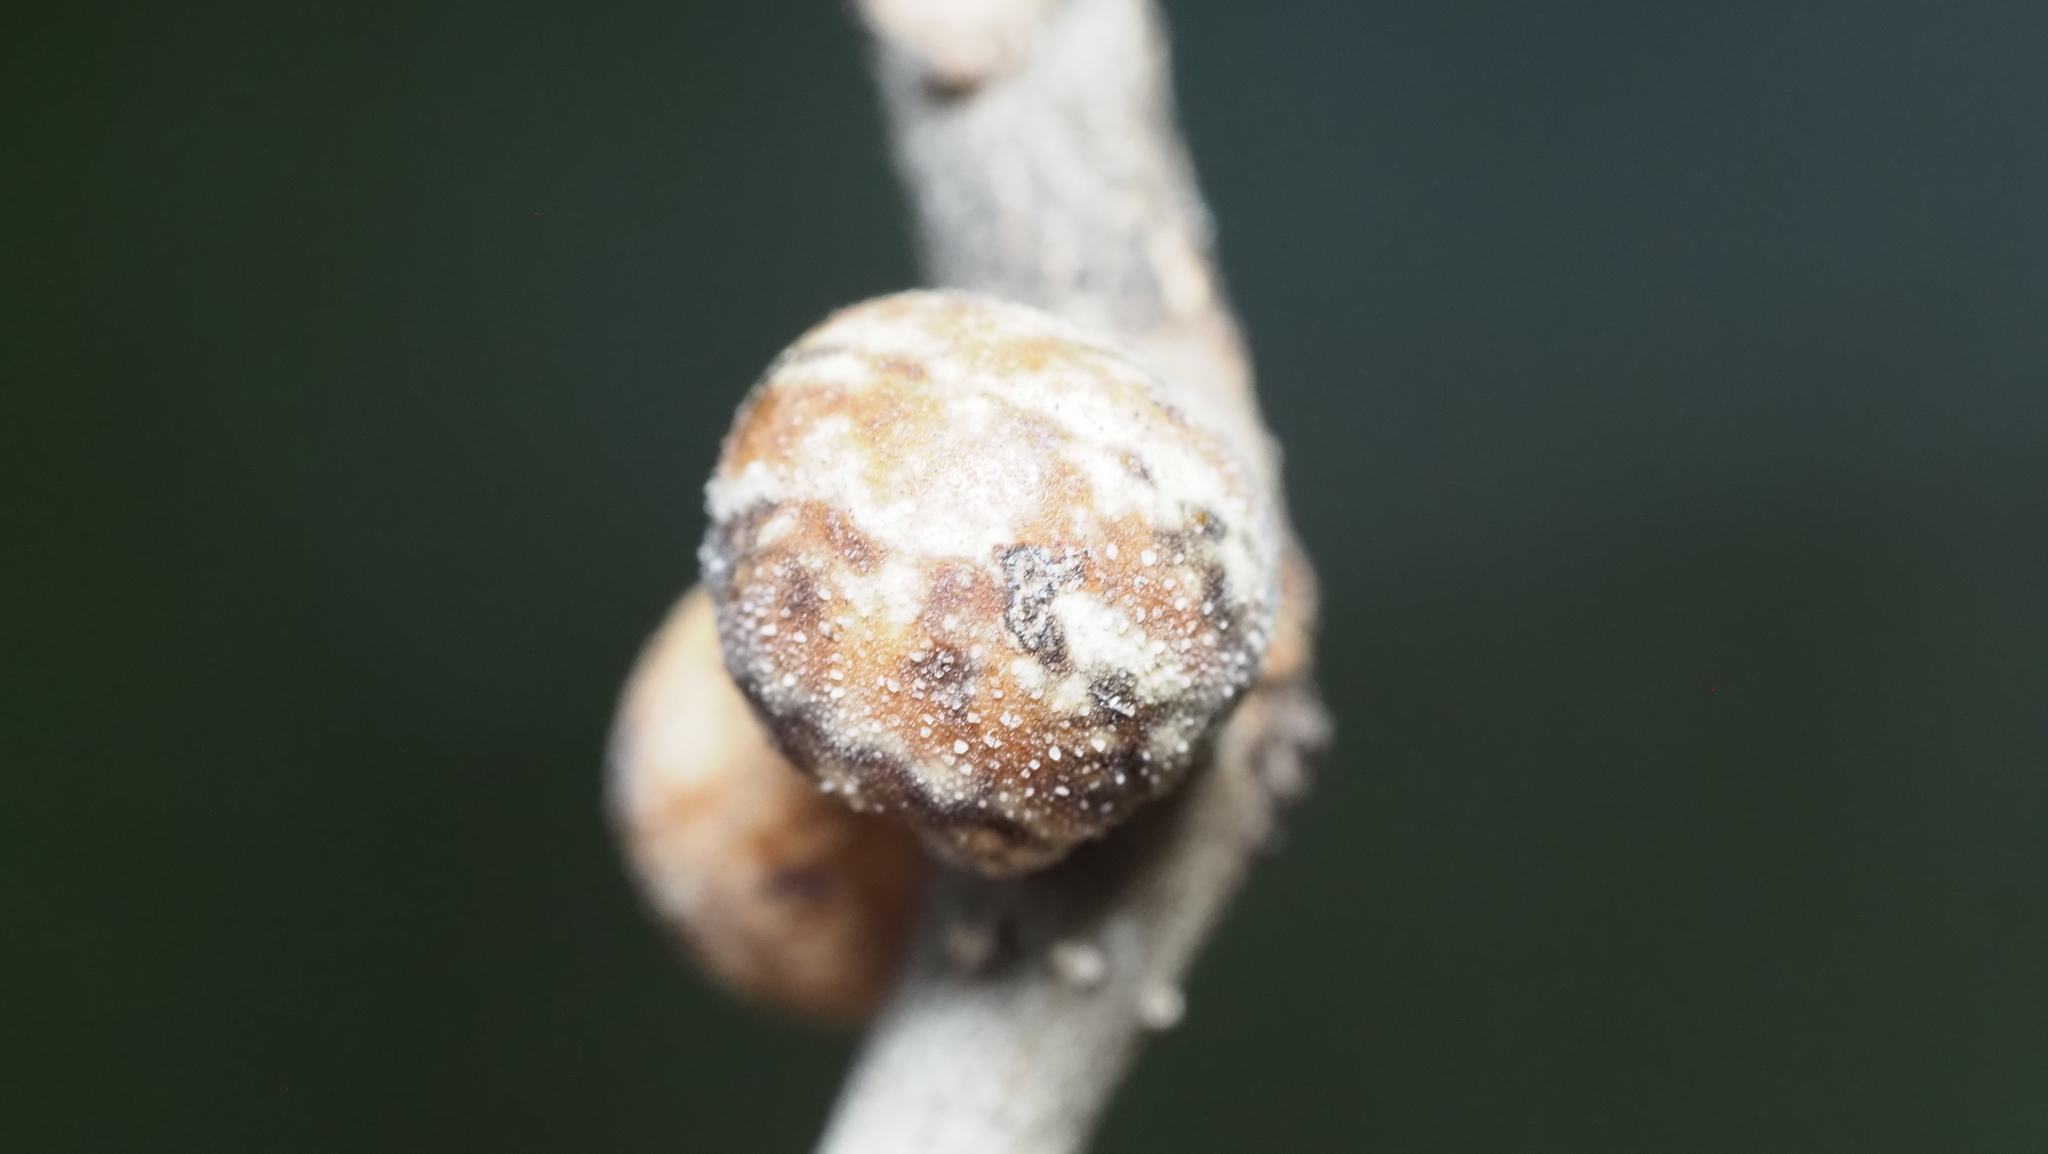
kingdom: Animalia
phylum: Arthropoda
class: Insecta
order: Hemiptera
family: Kermesidae
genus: Allokermes
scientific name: Allokermes cueroensis
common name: Live oak kermes
